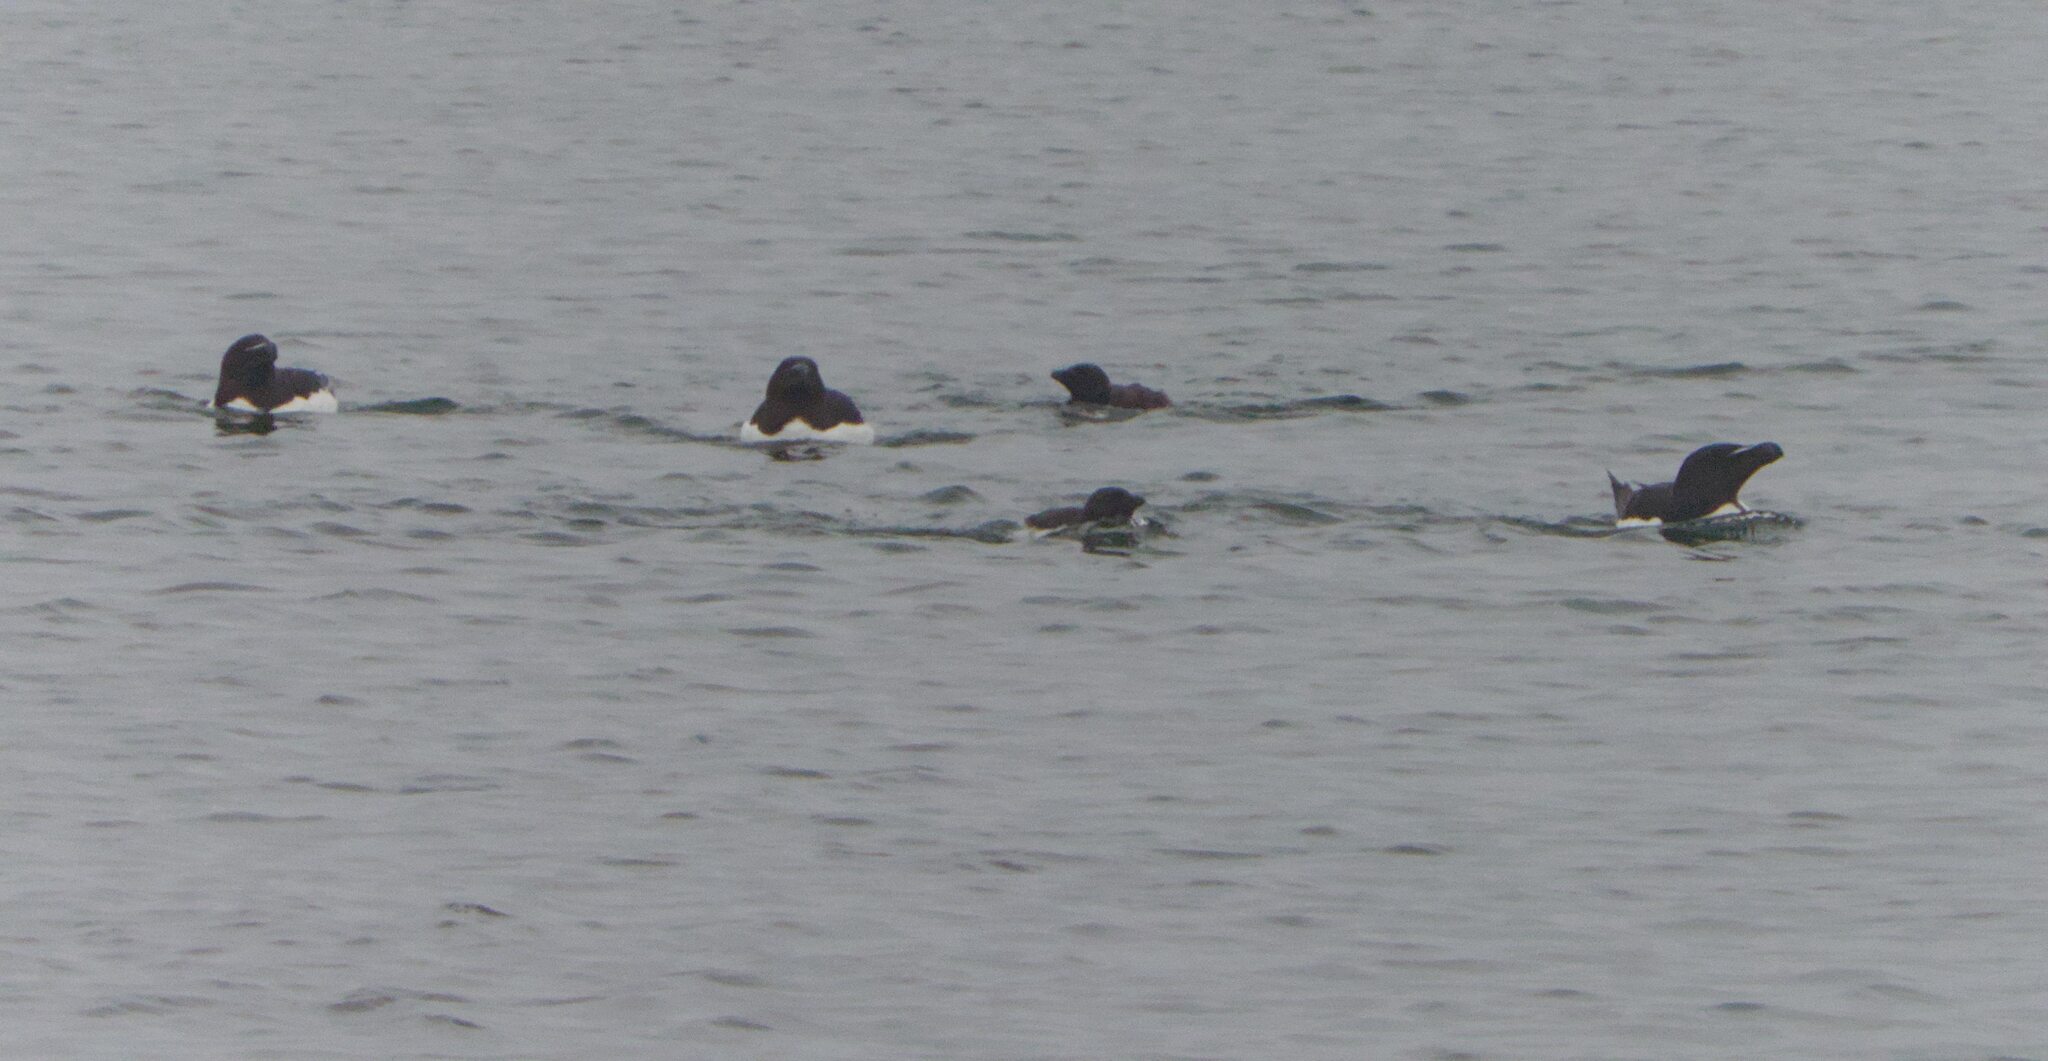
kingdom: Animalia
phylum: Chordata
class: Aves
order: Charadriiformes
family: Alcidae
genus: Alca
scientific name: Alca torda
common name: Razorbill
